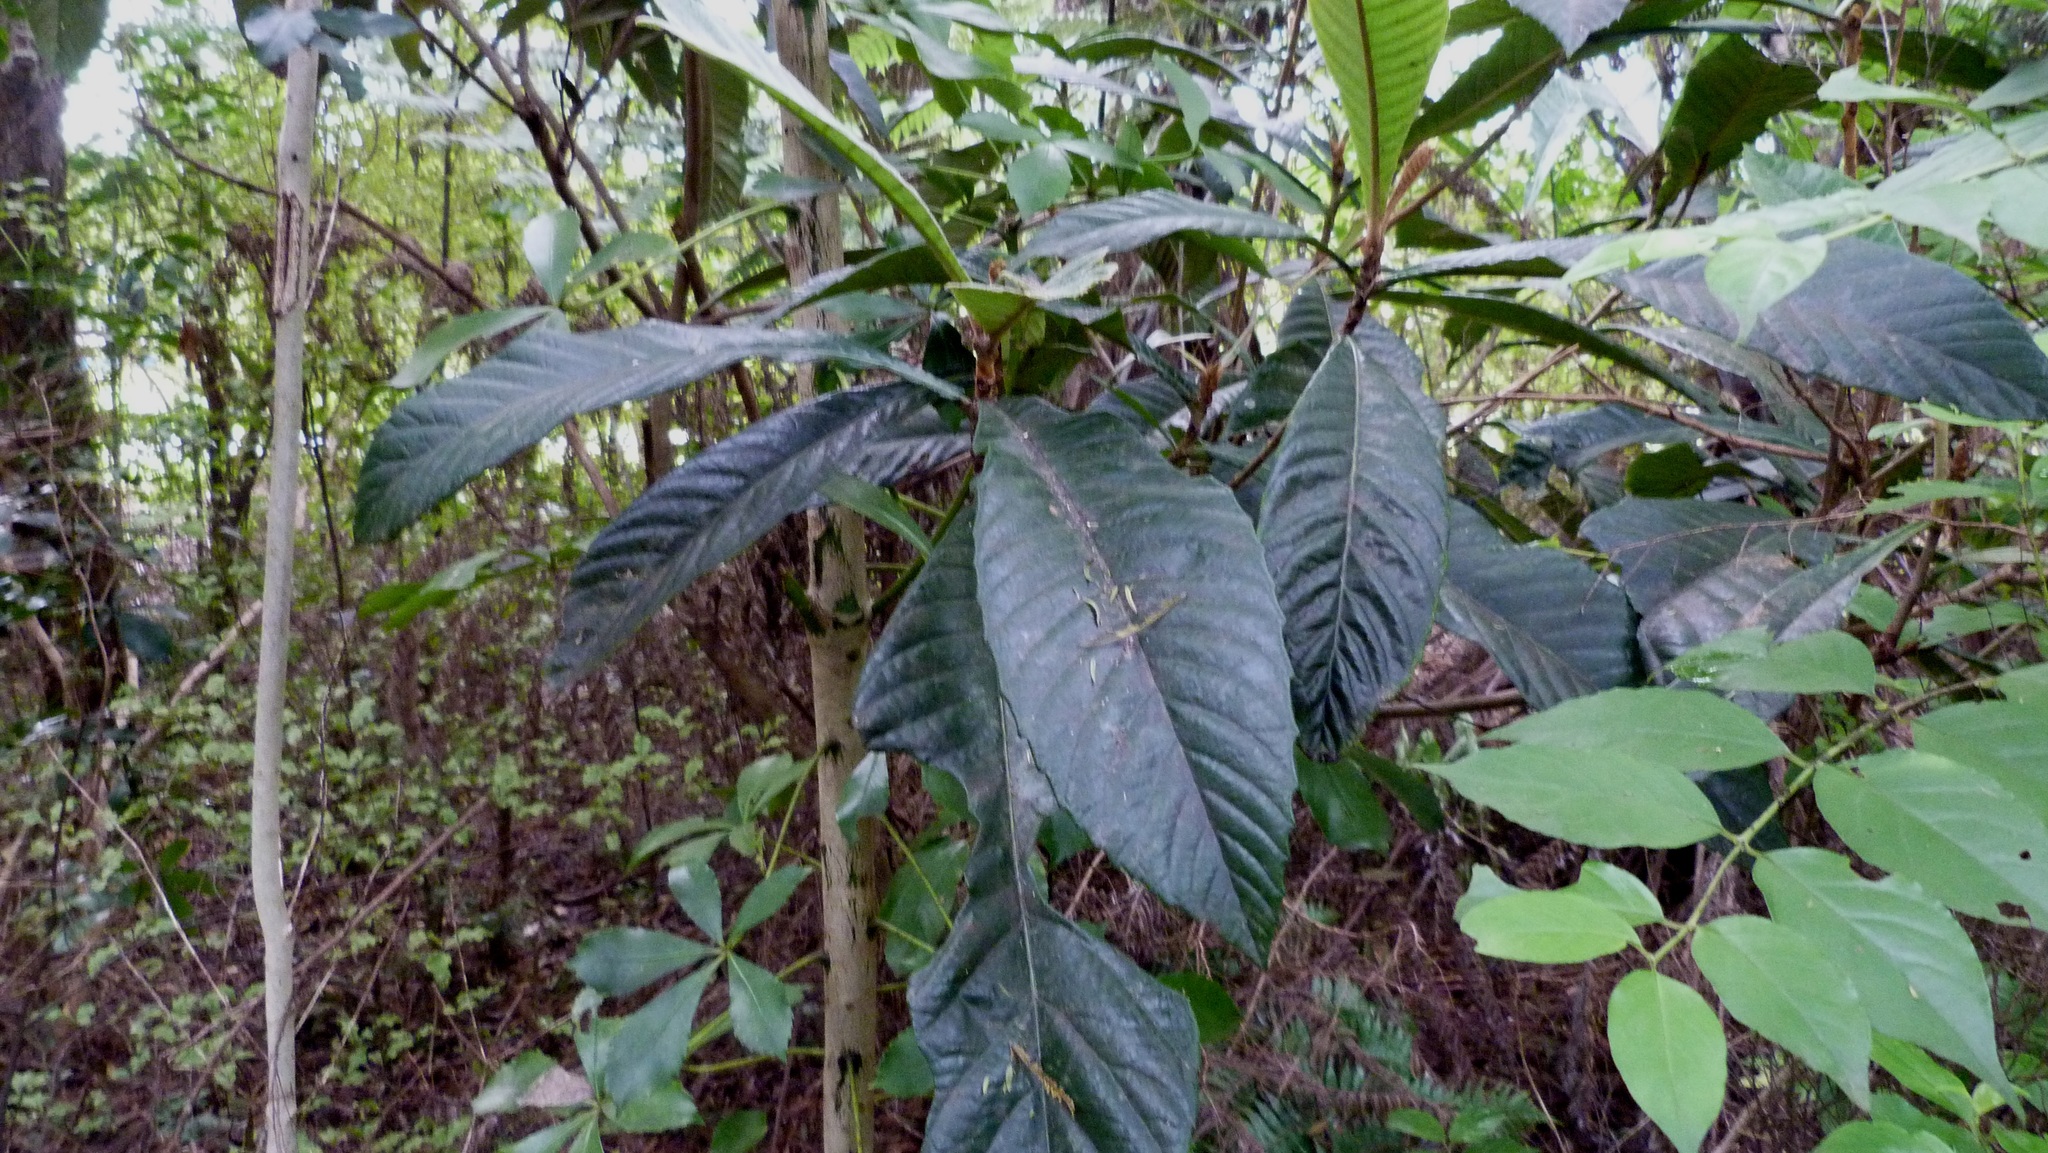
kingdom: Plantae
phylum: Tracheophyta
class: Magnoliopsida
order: Rosales
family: Rosaceae
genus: Rhaphiolepis
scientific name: Rhaphiolepis bibas
